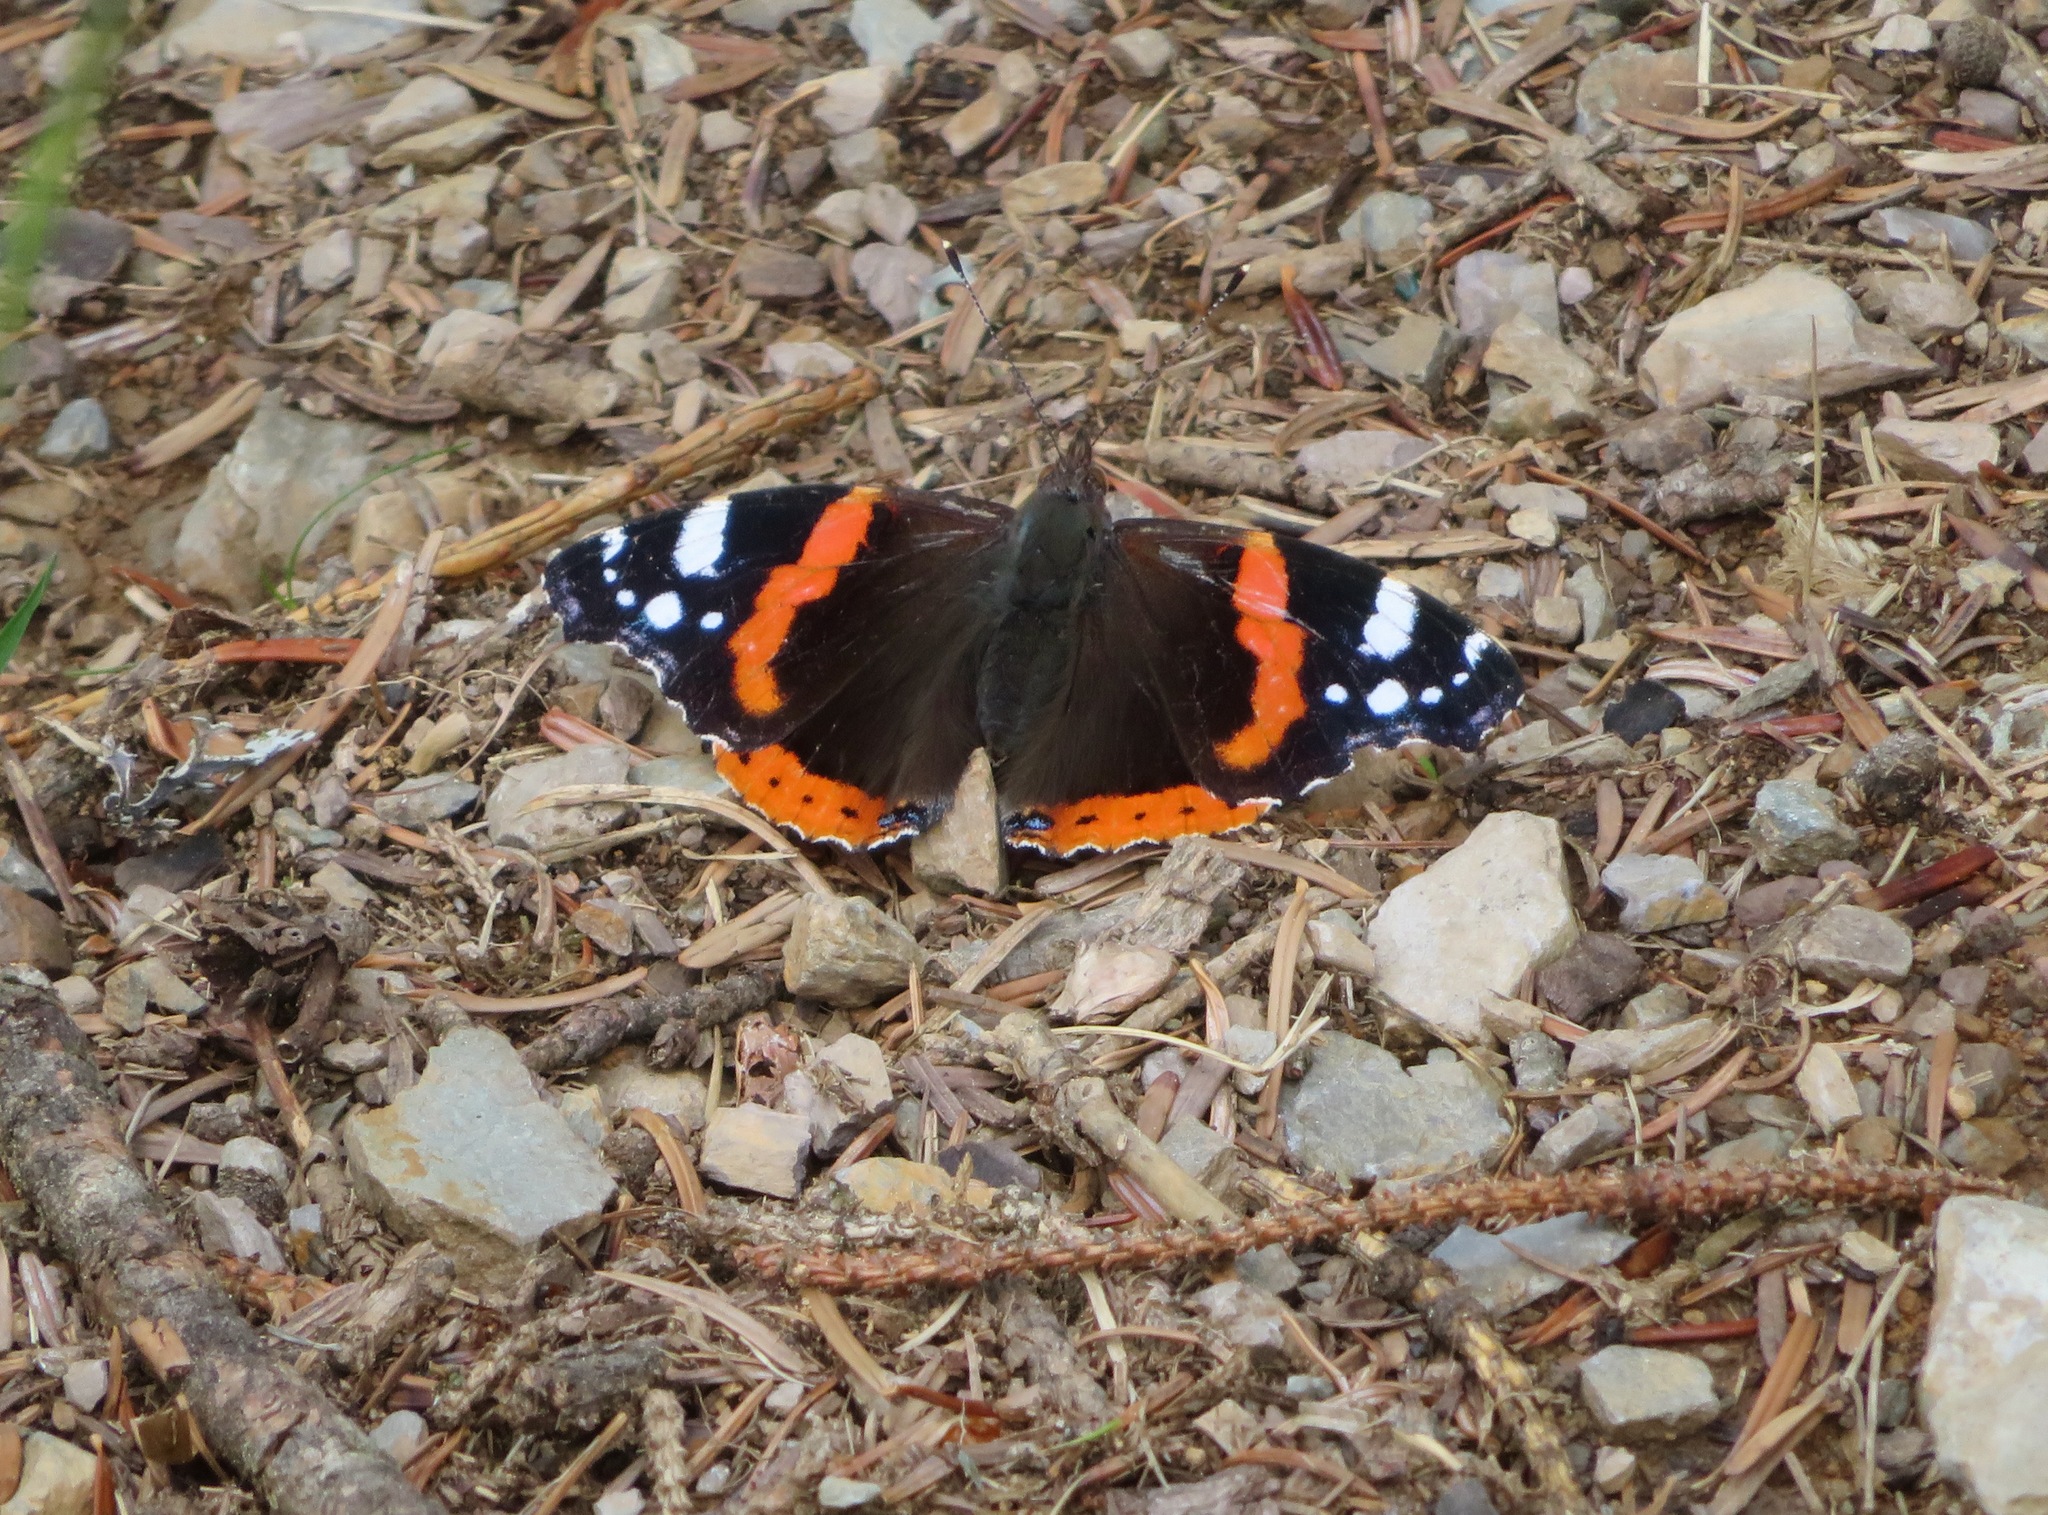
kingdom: Animalia
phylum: Arthropoda
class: Insecta
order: Lepidoptera
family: Nymphalidae
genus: Vanessa
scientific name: Vanessa atalanta
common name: Red admiral
